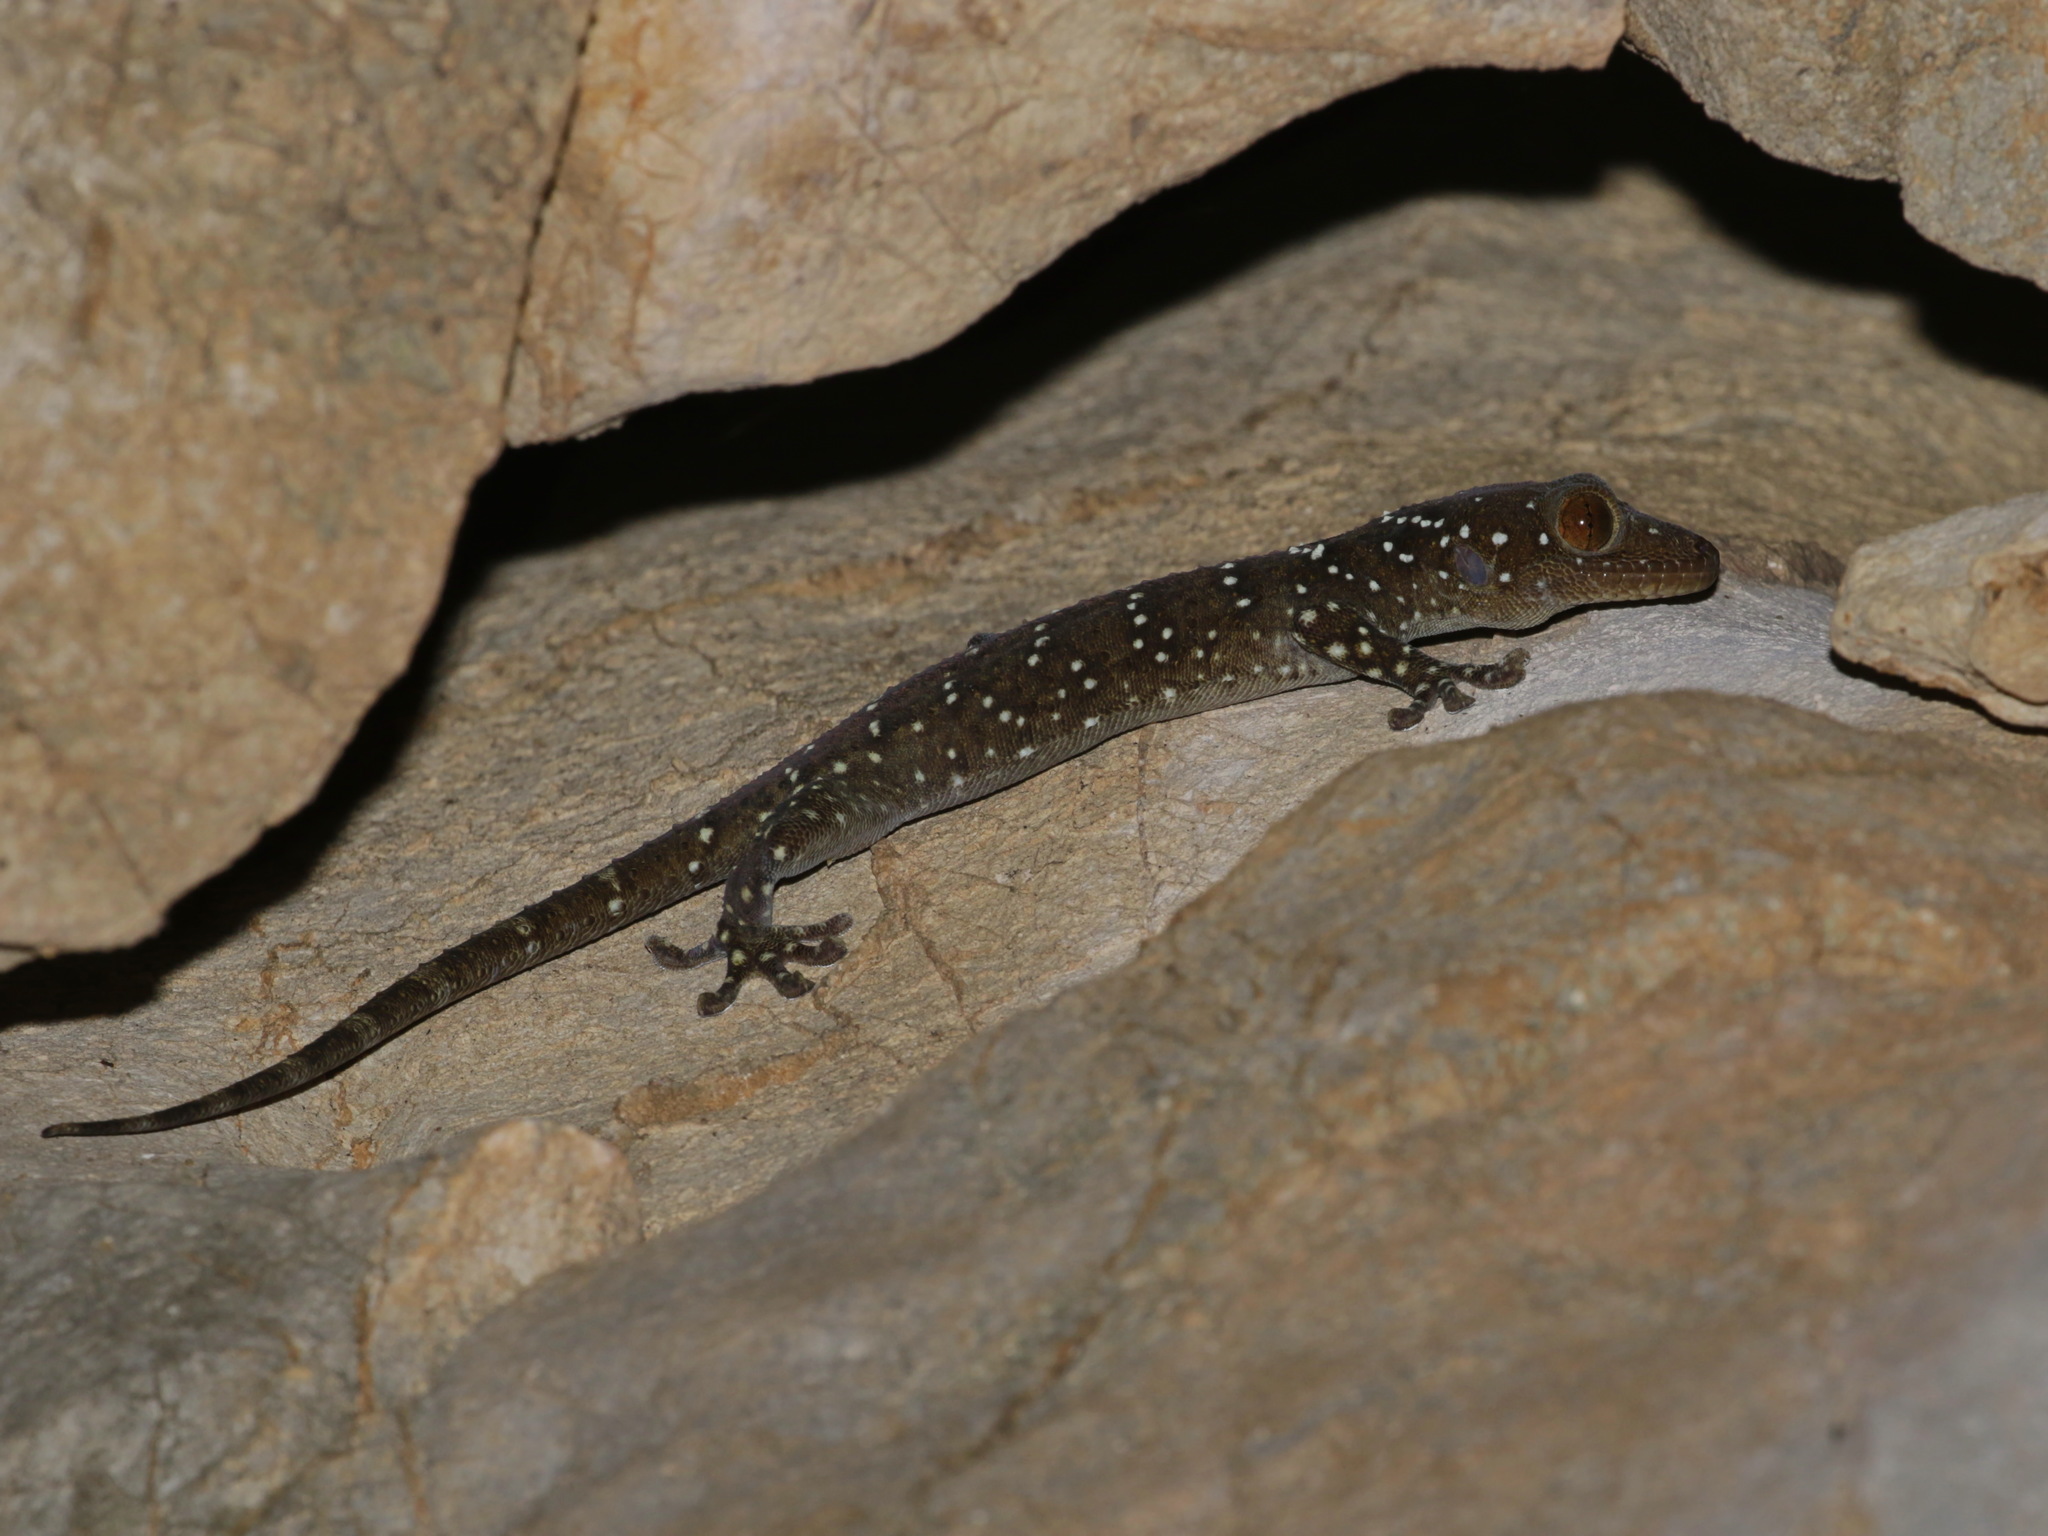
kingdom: Animalia
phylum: Chordata
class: Squamata
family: Gekkonidae
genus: Gekko
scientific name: Gekko nutaphandi
